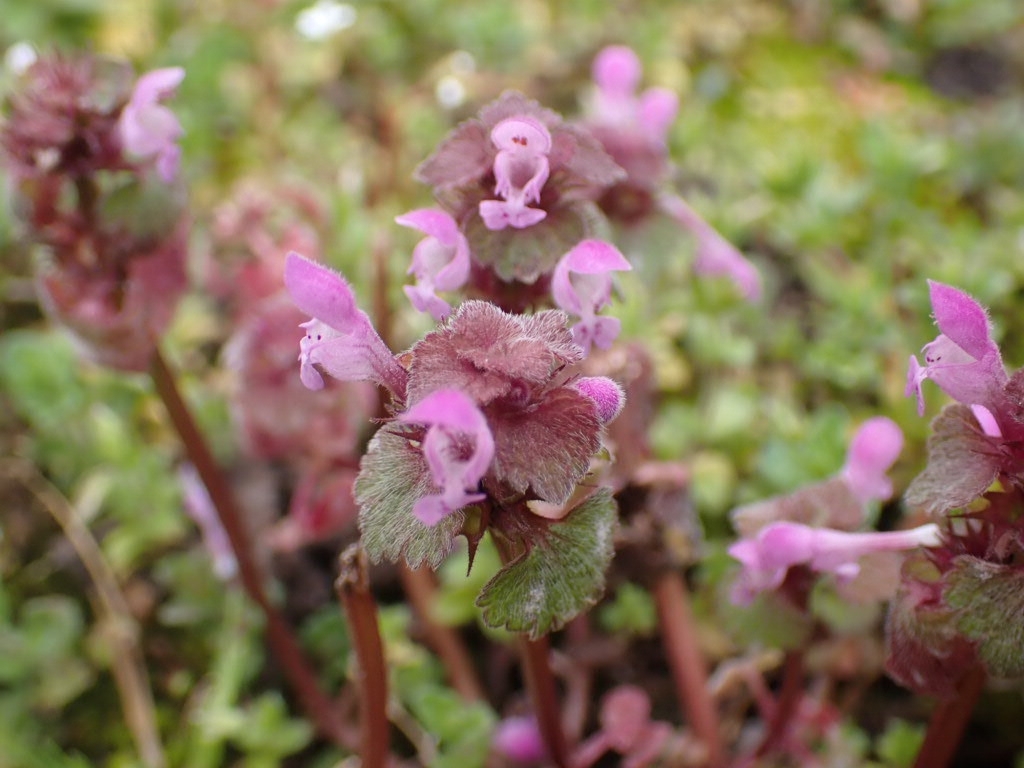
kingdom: Plantae
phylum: Tracheophyta
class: Magnoliopsida
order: Lamiales
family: Lamiaceae
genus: Lamium
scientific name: Lamium purpureum
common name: Red dead-nettle
